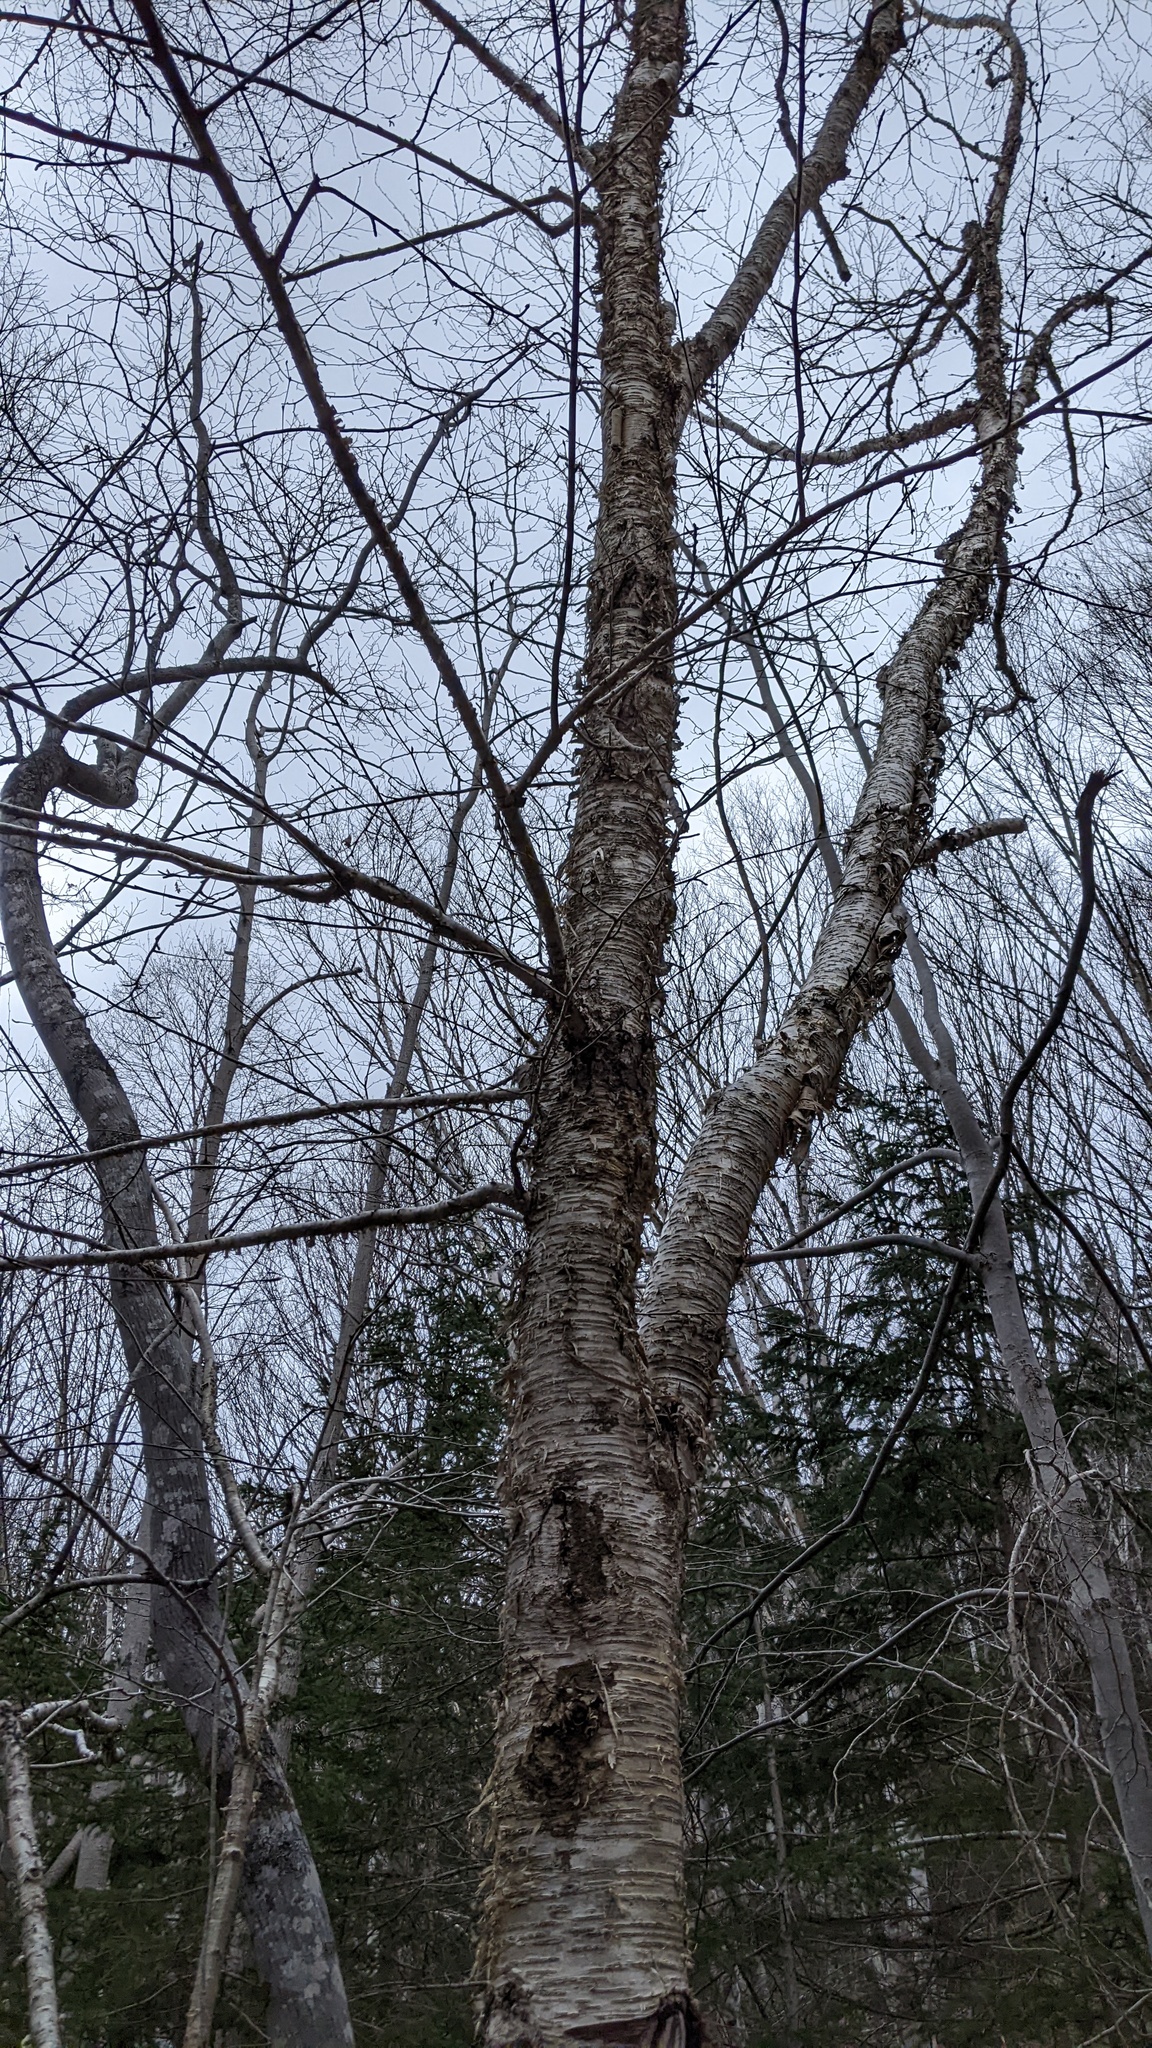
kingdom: Plantae
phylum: Tracheophyta
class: Magnoliopsida
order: Fagales
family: Betulaceae
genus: Betula
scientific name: Betula alleghaniensis
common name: Yellow birch
